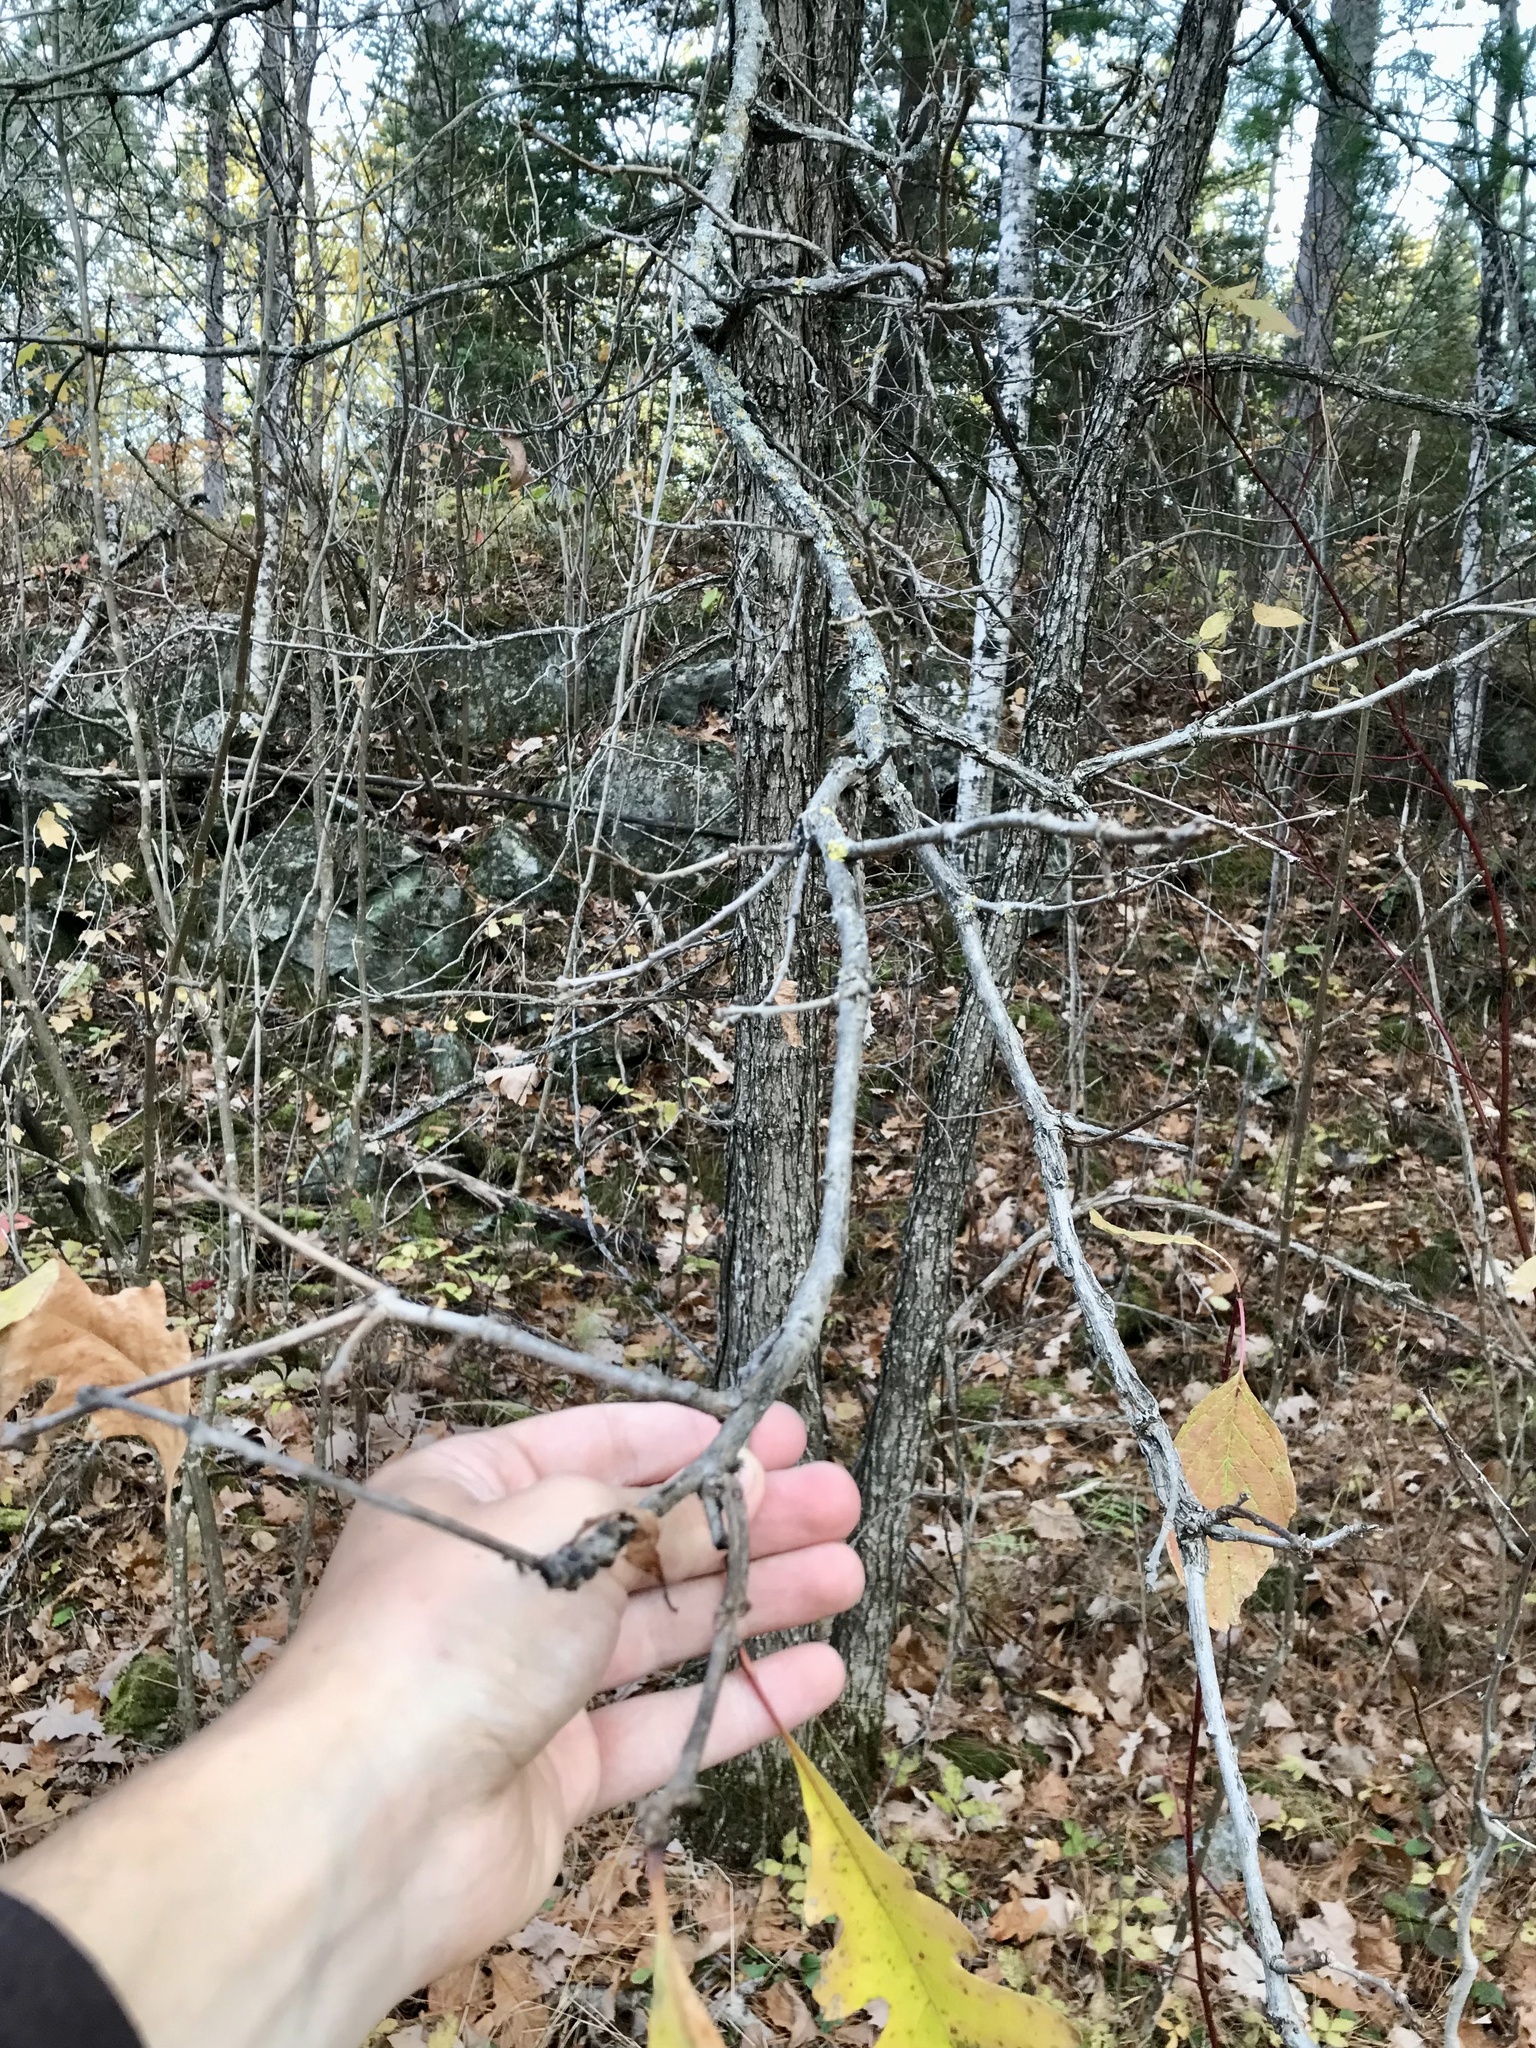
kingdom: Plantae
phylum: Tracheophyta
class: Magnoliopsida
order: Fagales
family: Fagaceae
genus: Quercus
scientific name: Quercus macrocarpa
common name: Bur oak
